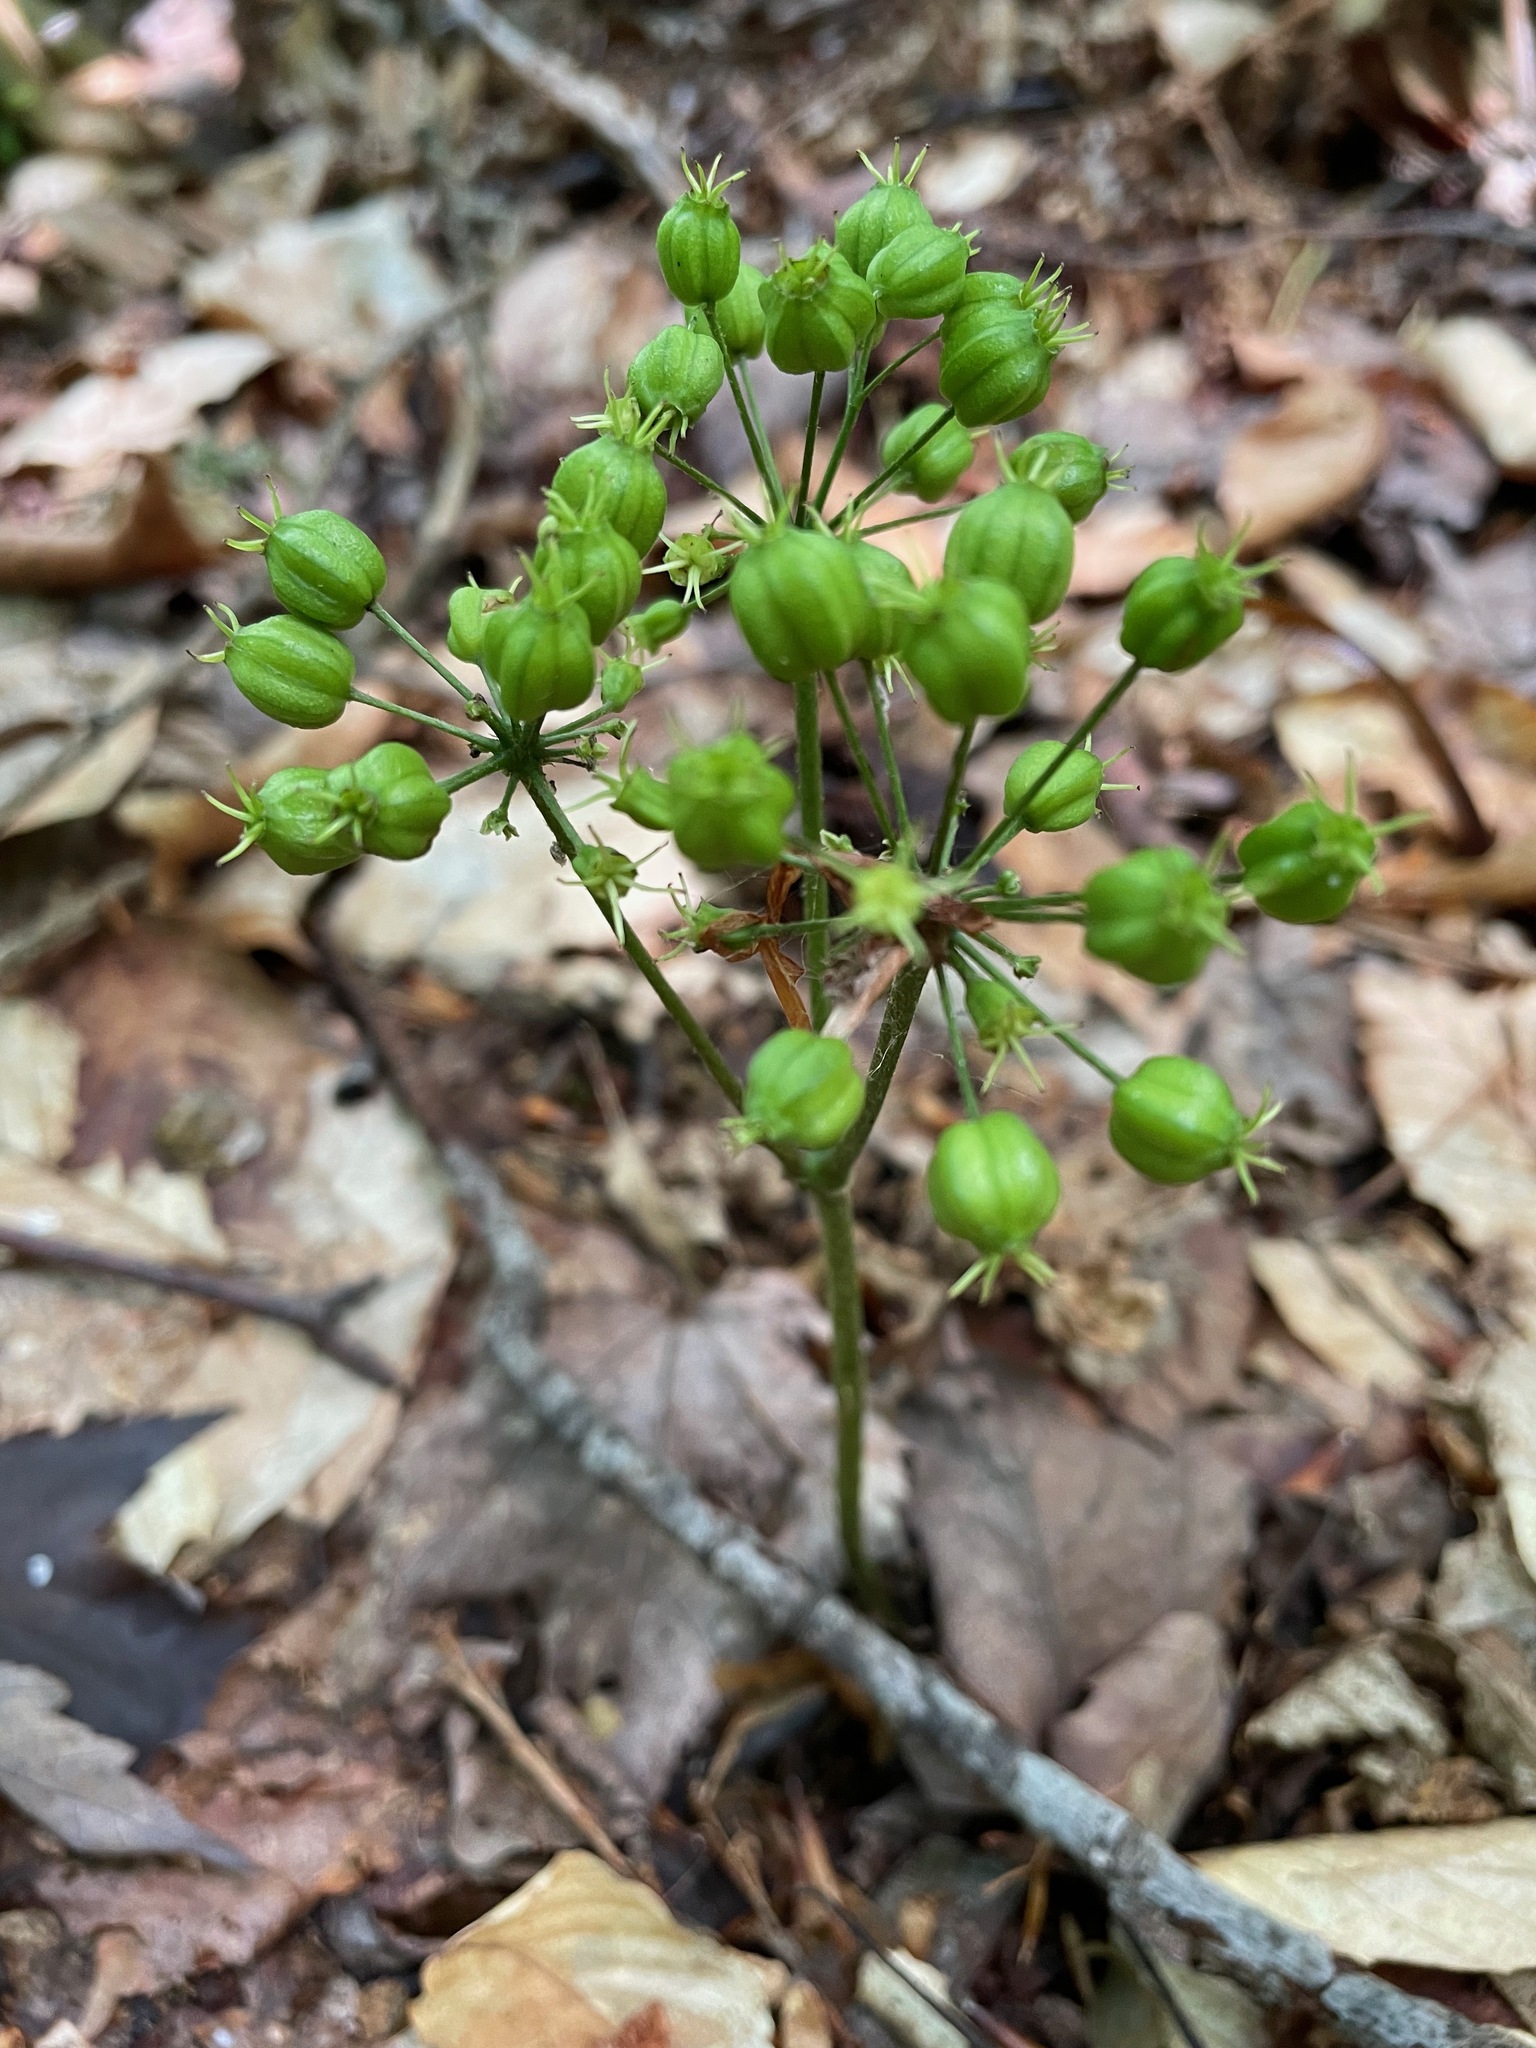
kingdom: Plantae
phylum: Tracheophyta
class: Magnoliopsida
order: Apiales
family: Araliaceae
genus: Aralia
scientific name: Aralia nudicaulis
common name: Wild sarsaparilla
